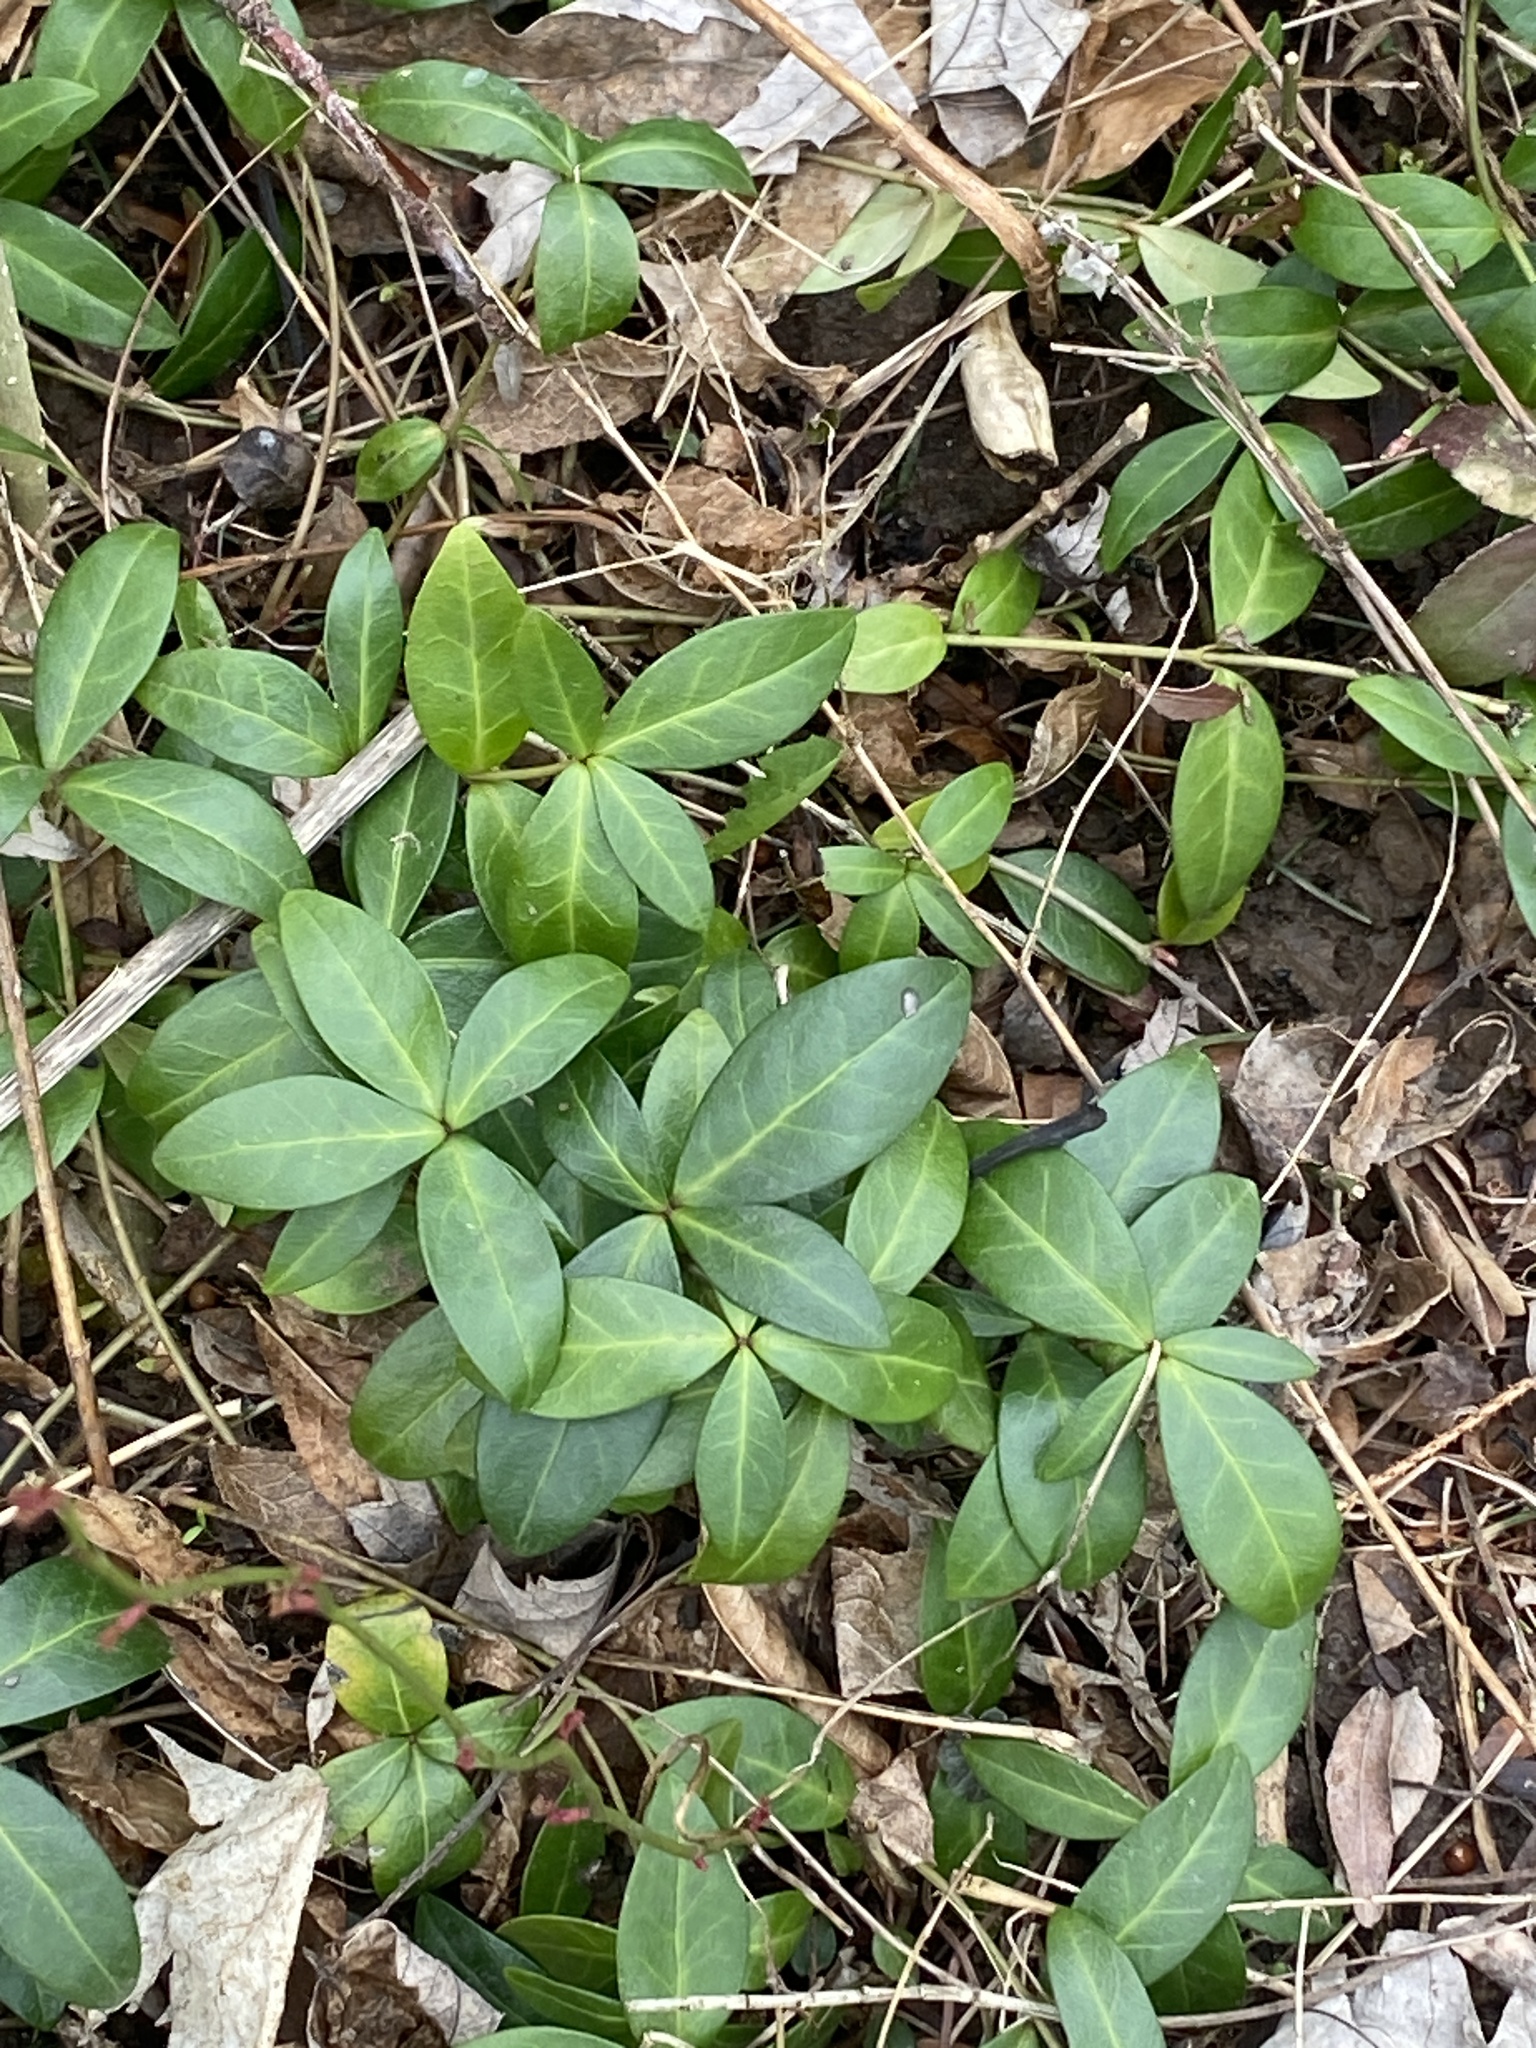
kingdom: Plantae
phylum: Tracheophyta
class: Magnoliopsida
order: Gentianales
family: Apocynaceae
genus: Vinca
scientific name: Vinca minor
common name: Lesser periwinkle
